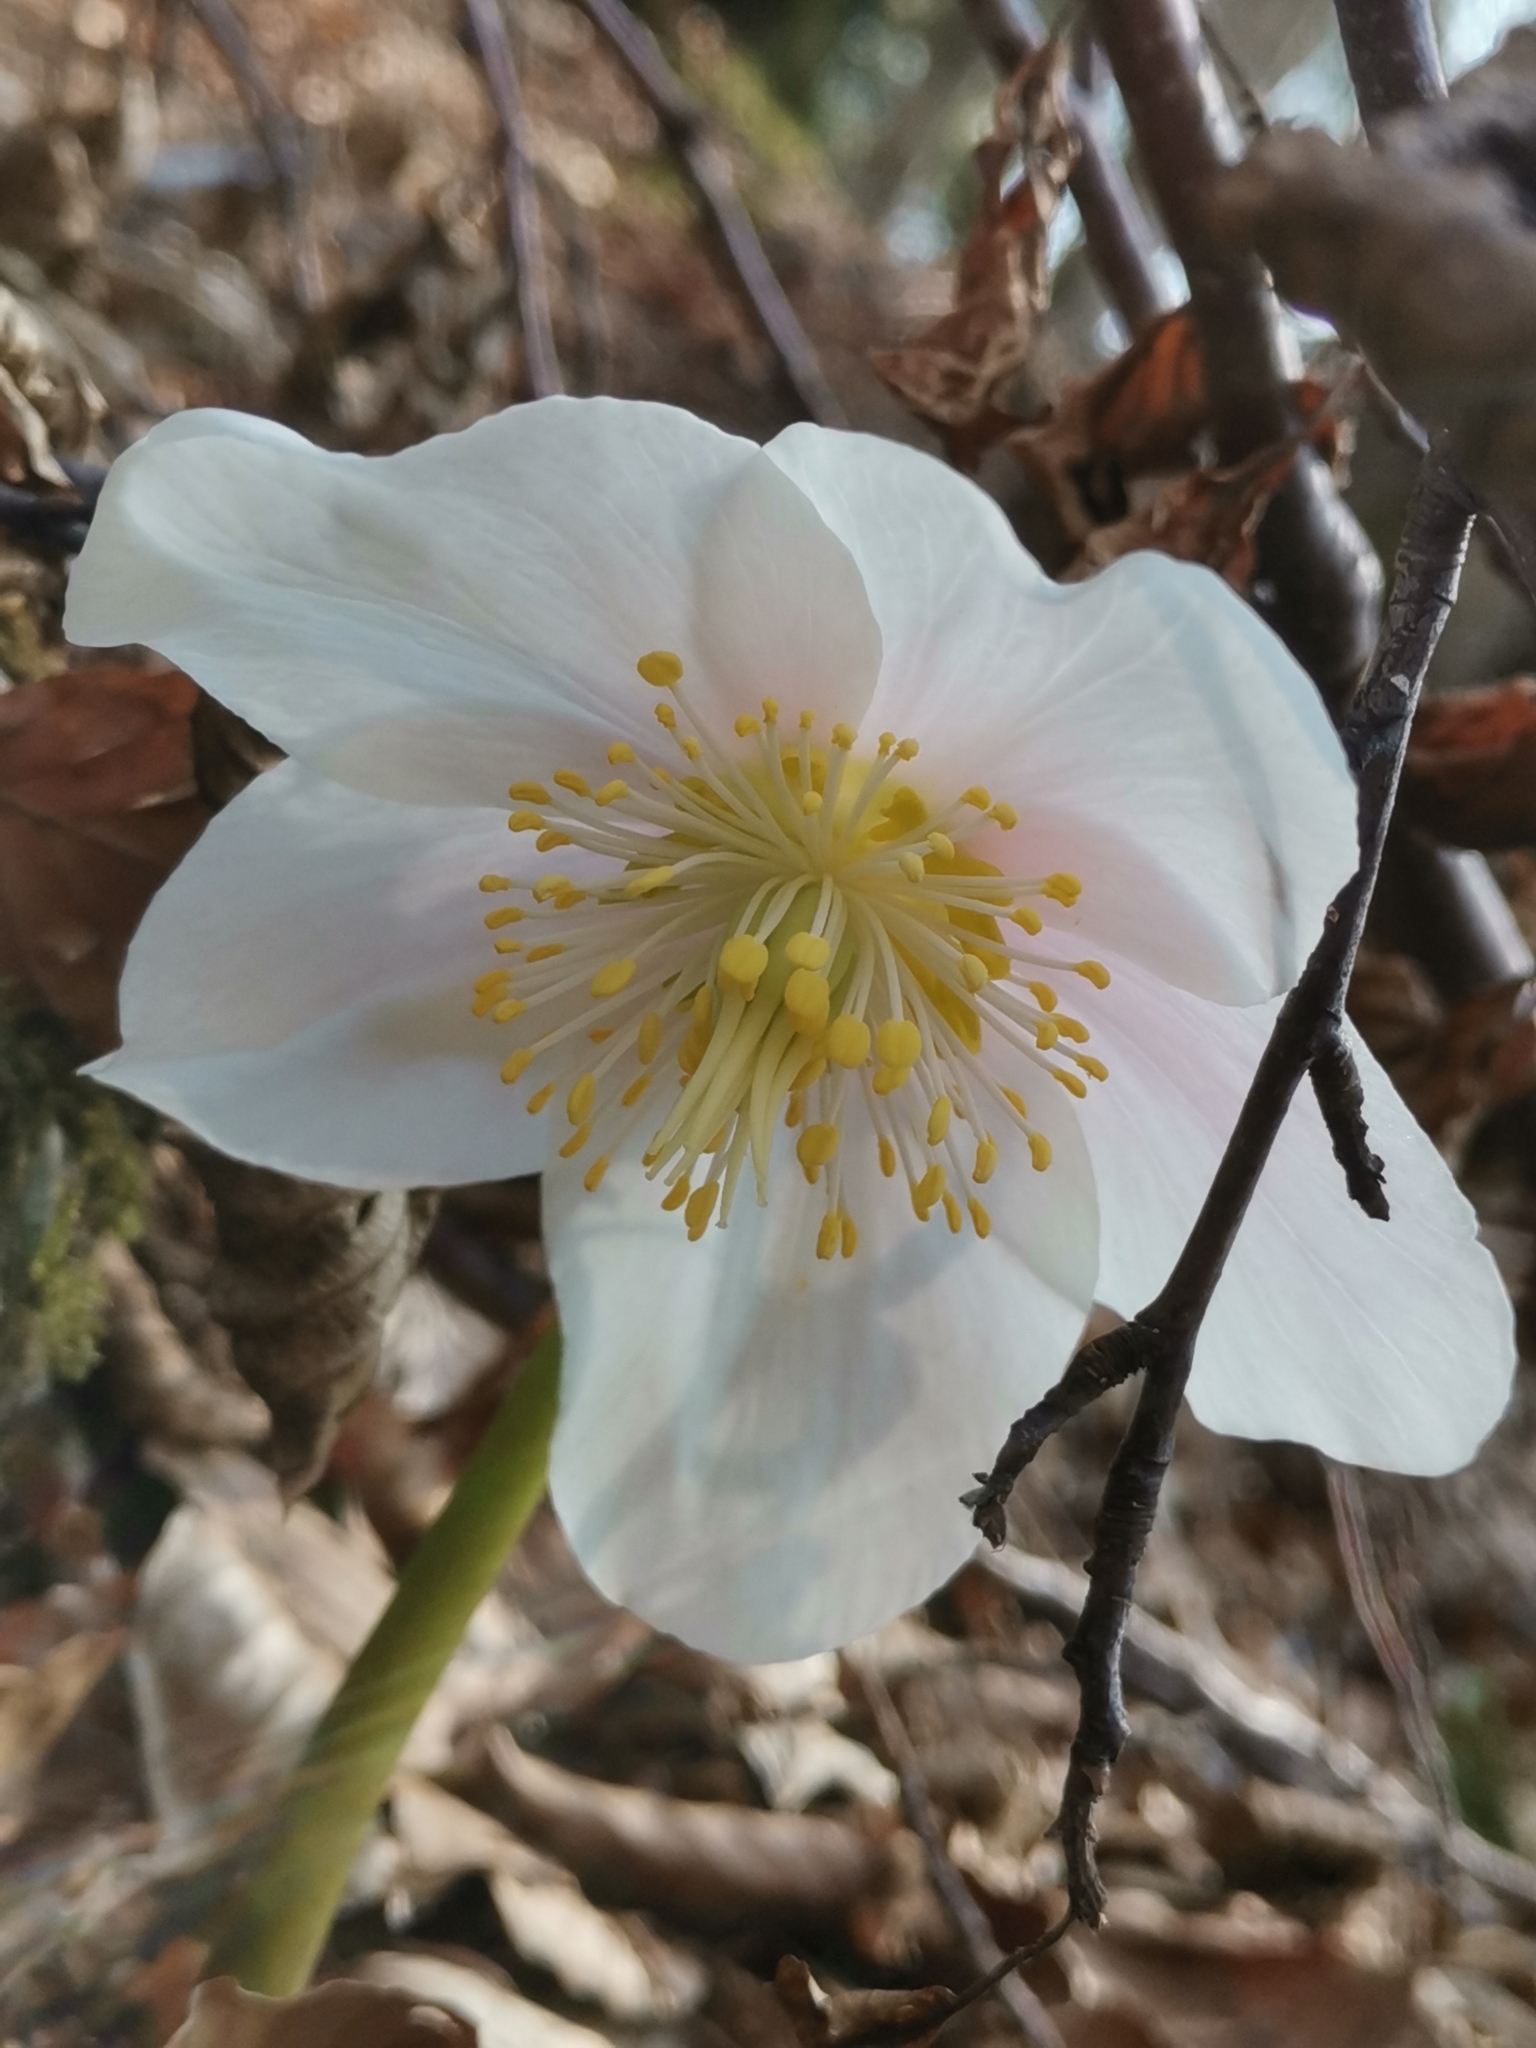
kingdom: Plantae
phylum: Tracheophyta
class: Magnoliopsida
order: Ranunculales
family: Ranunculaceae
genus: Helleborus
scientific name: Helleborus niger
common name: Black hellebore
